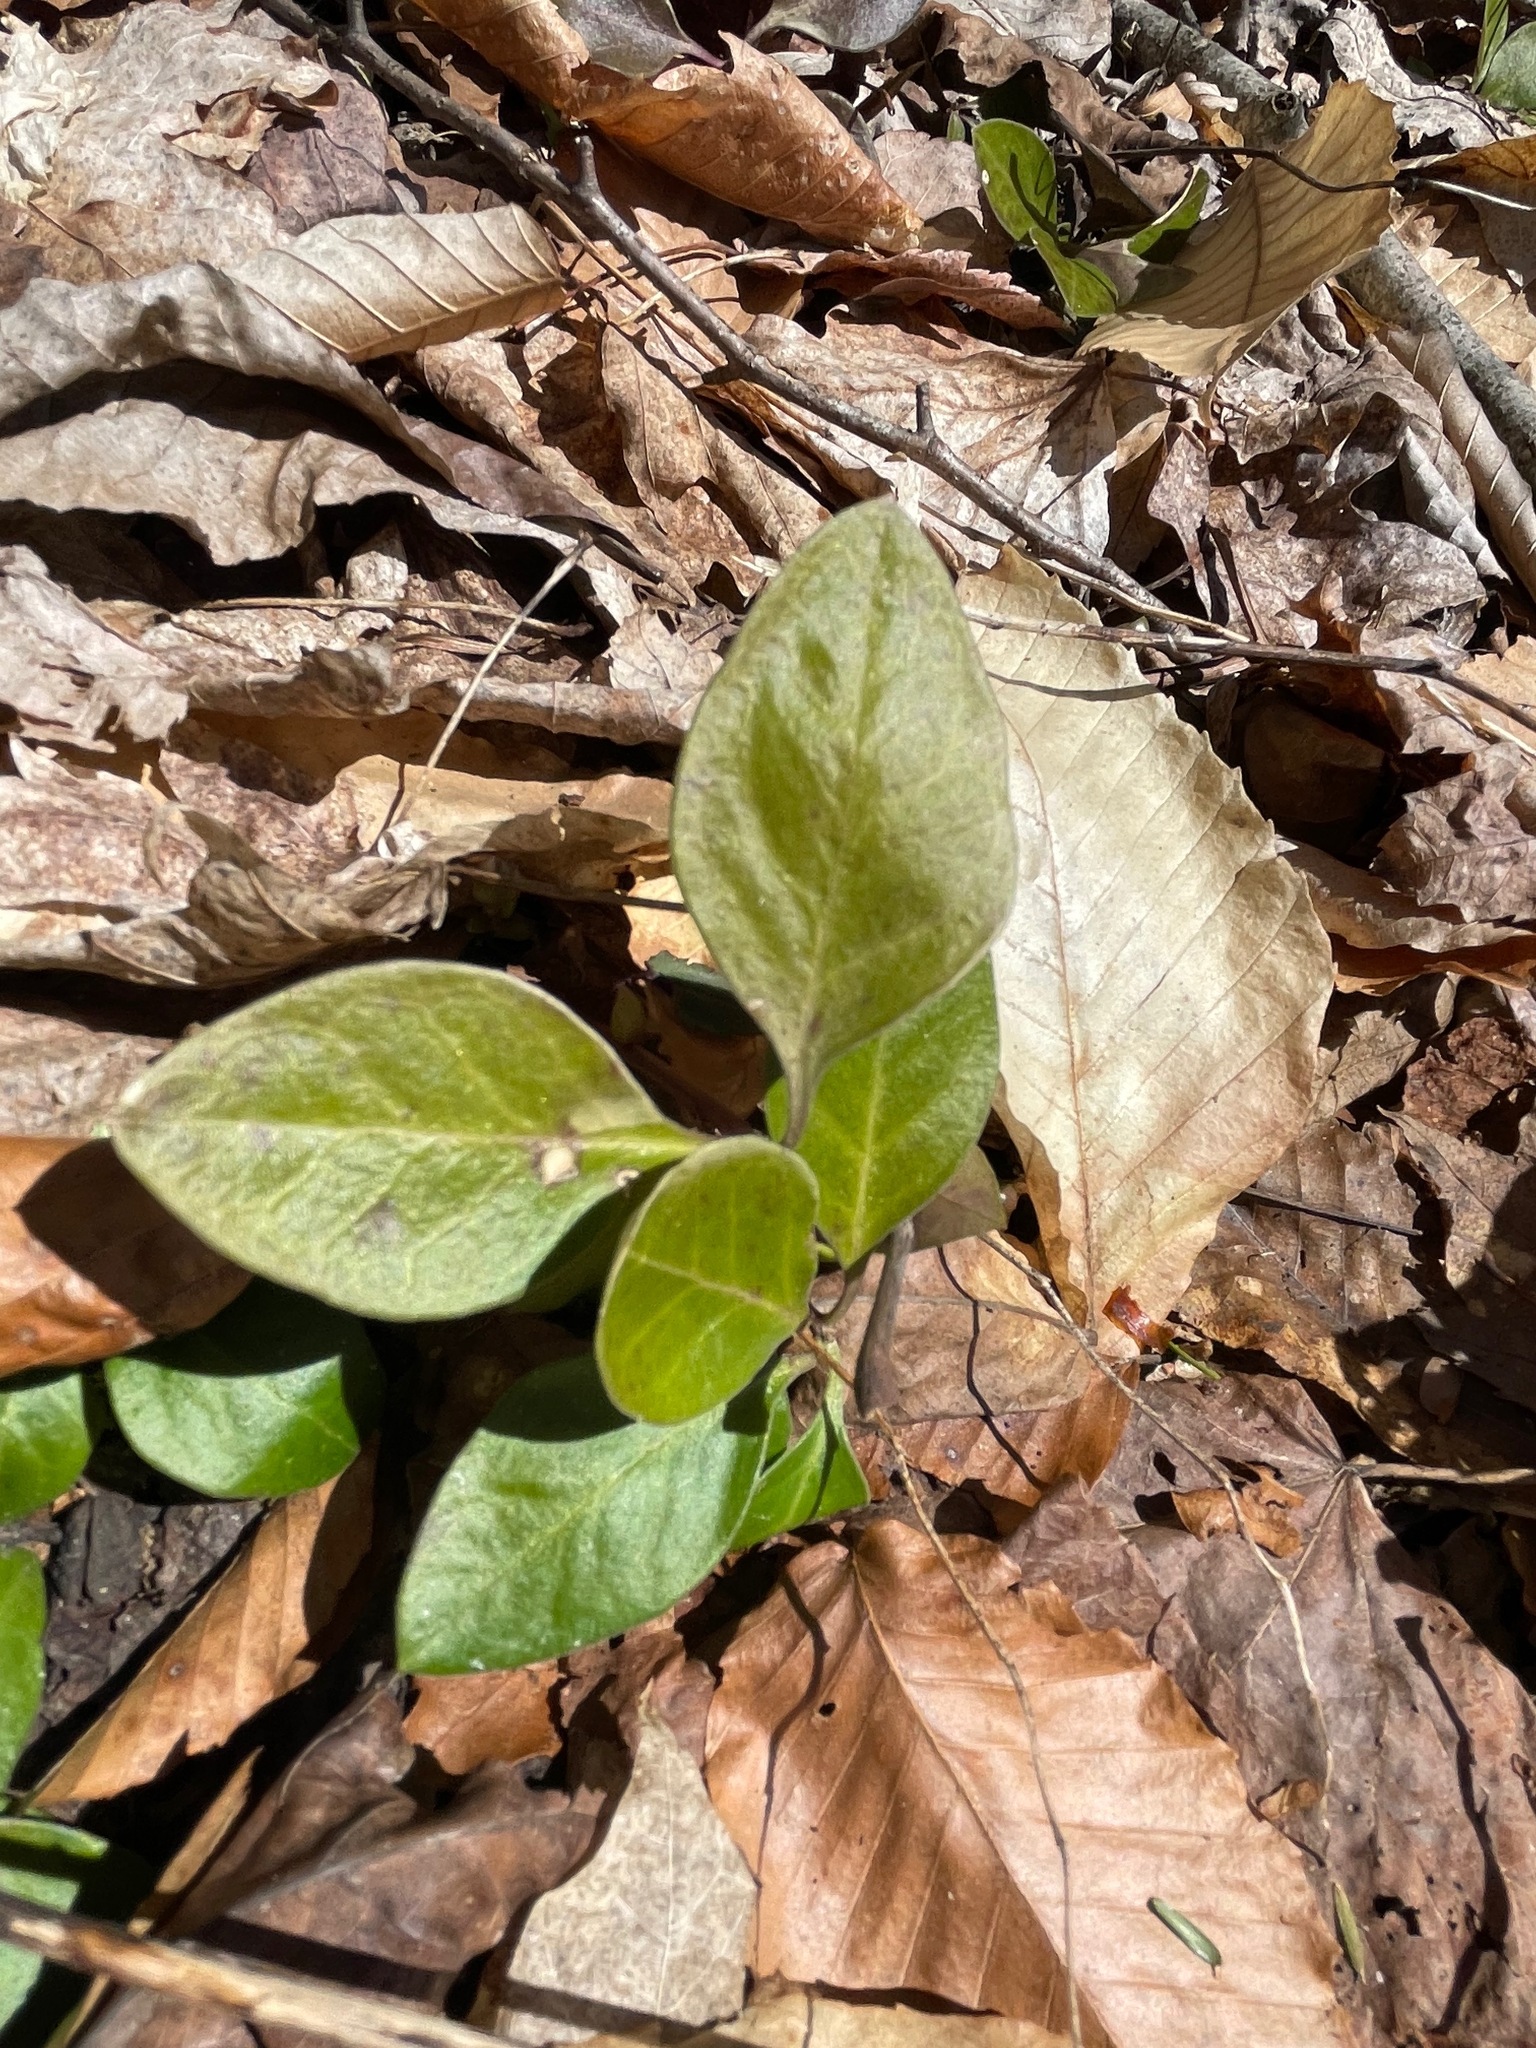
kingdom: Plantae
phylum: Tracheophyta
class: Magnoliopsida
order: Fabales
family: Polygalaceae
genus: Polygaloides
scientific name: Polygaloides paucifolia
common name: Bird-on-the-wing
